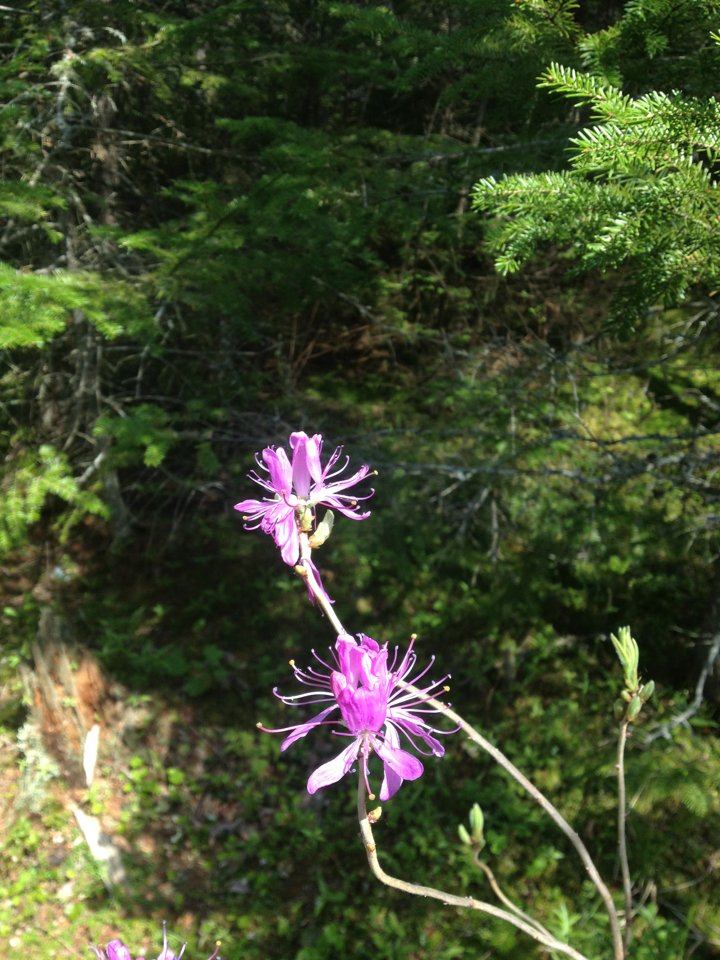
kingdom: Plantae
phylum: Tracheophyta
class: Magnoliopsida
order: Ericales
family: Ericaceae
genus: Rhododendron
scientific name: Rhododendron canadense
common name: Rhodora
